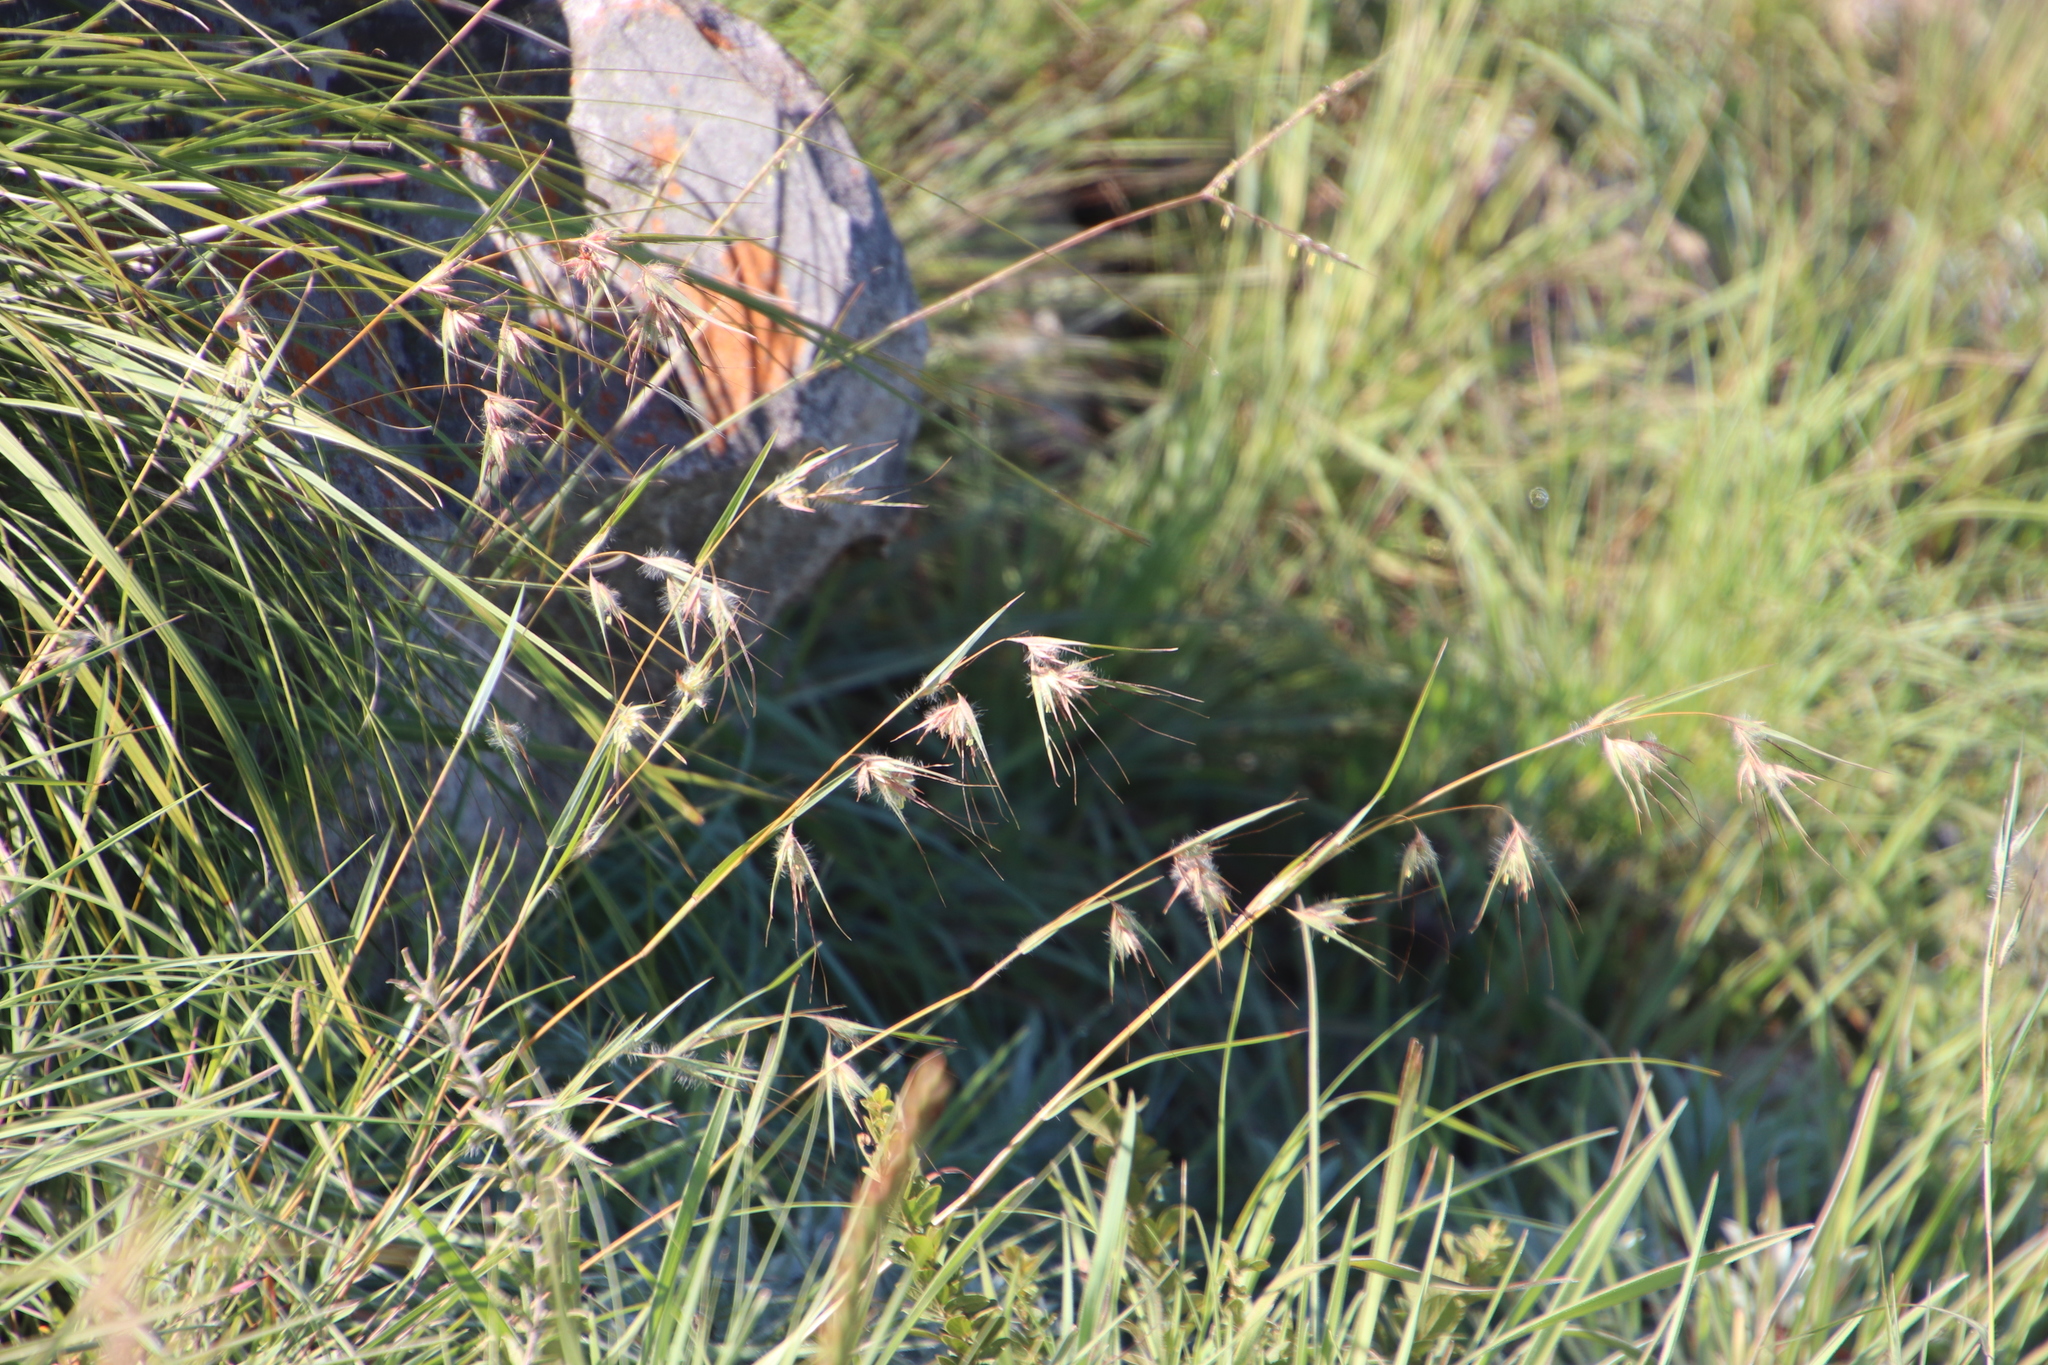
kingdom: Plantae
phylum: Tracheophyta
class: Liliopsida
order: Poales
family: Poaceae
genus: Themeda
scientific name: Themeda triandra
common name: Kangaroo grass
